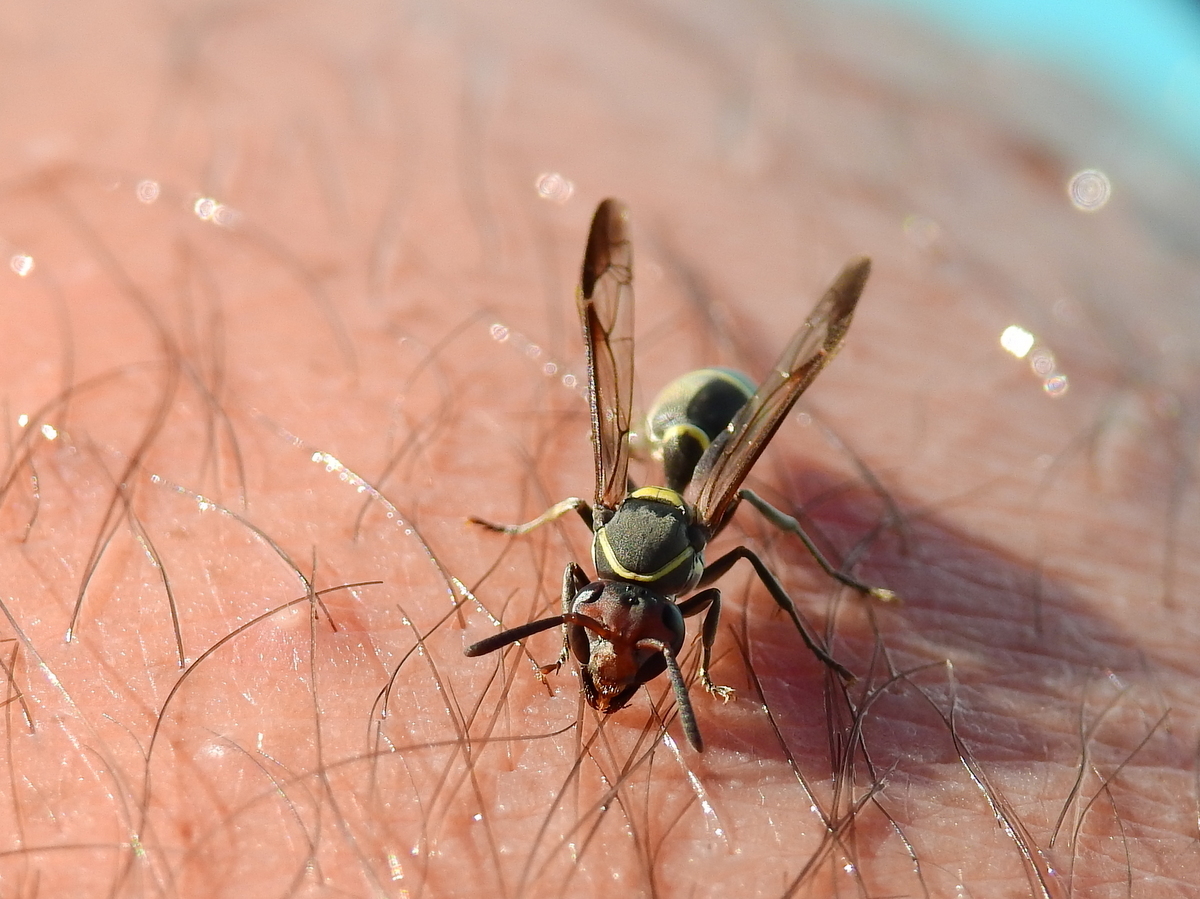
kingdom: Animalia
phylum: Arthropoda
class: Insecta
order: Hymenoptera
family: Eumenidae
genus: Polybia
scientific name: Polybia ruficeps
